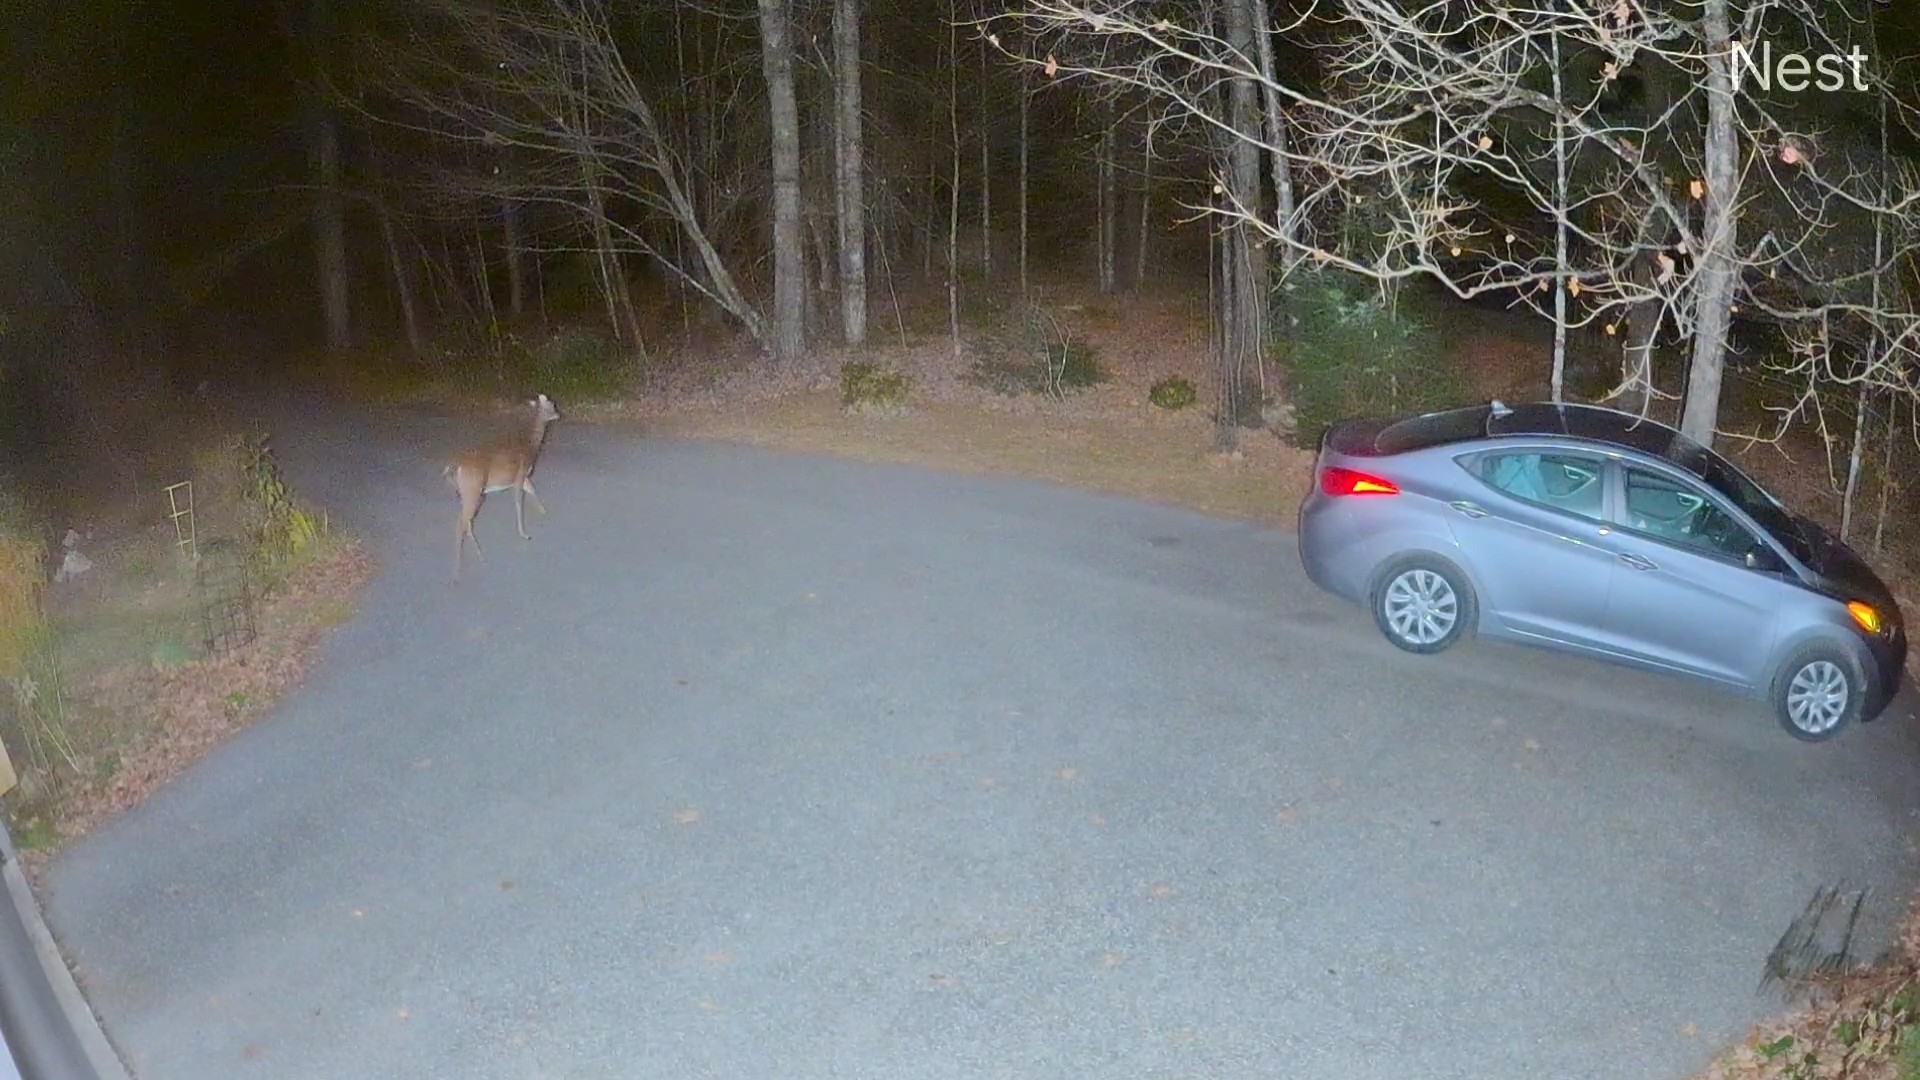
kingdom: Animalia
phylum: Chordata
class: Mammalia
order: Artiodactyla
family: Cervidae
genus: Odocoileus
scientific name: Odocoileus virginianus
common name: White-tailed deer
